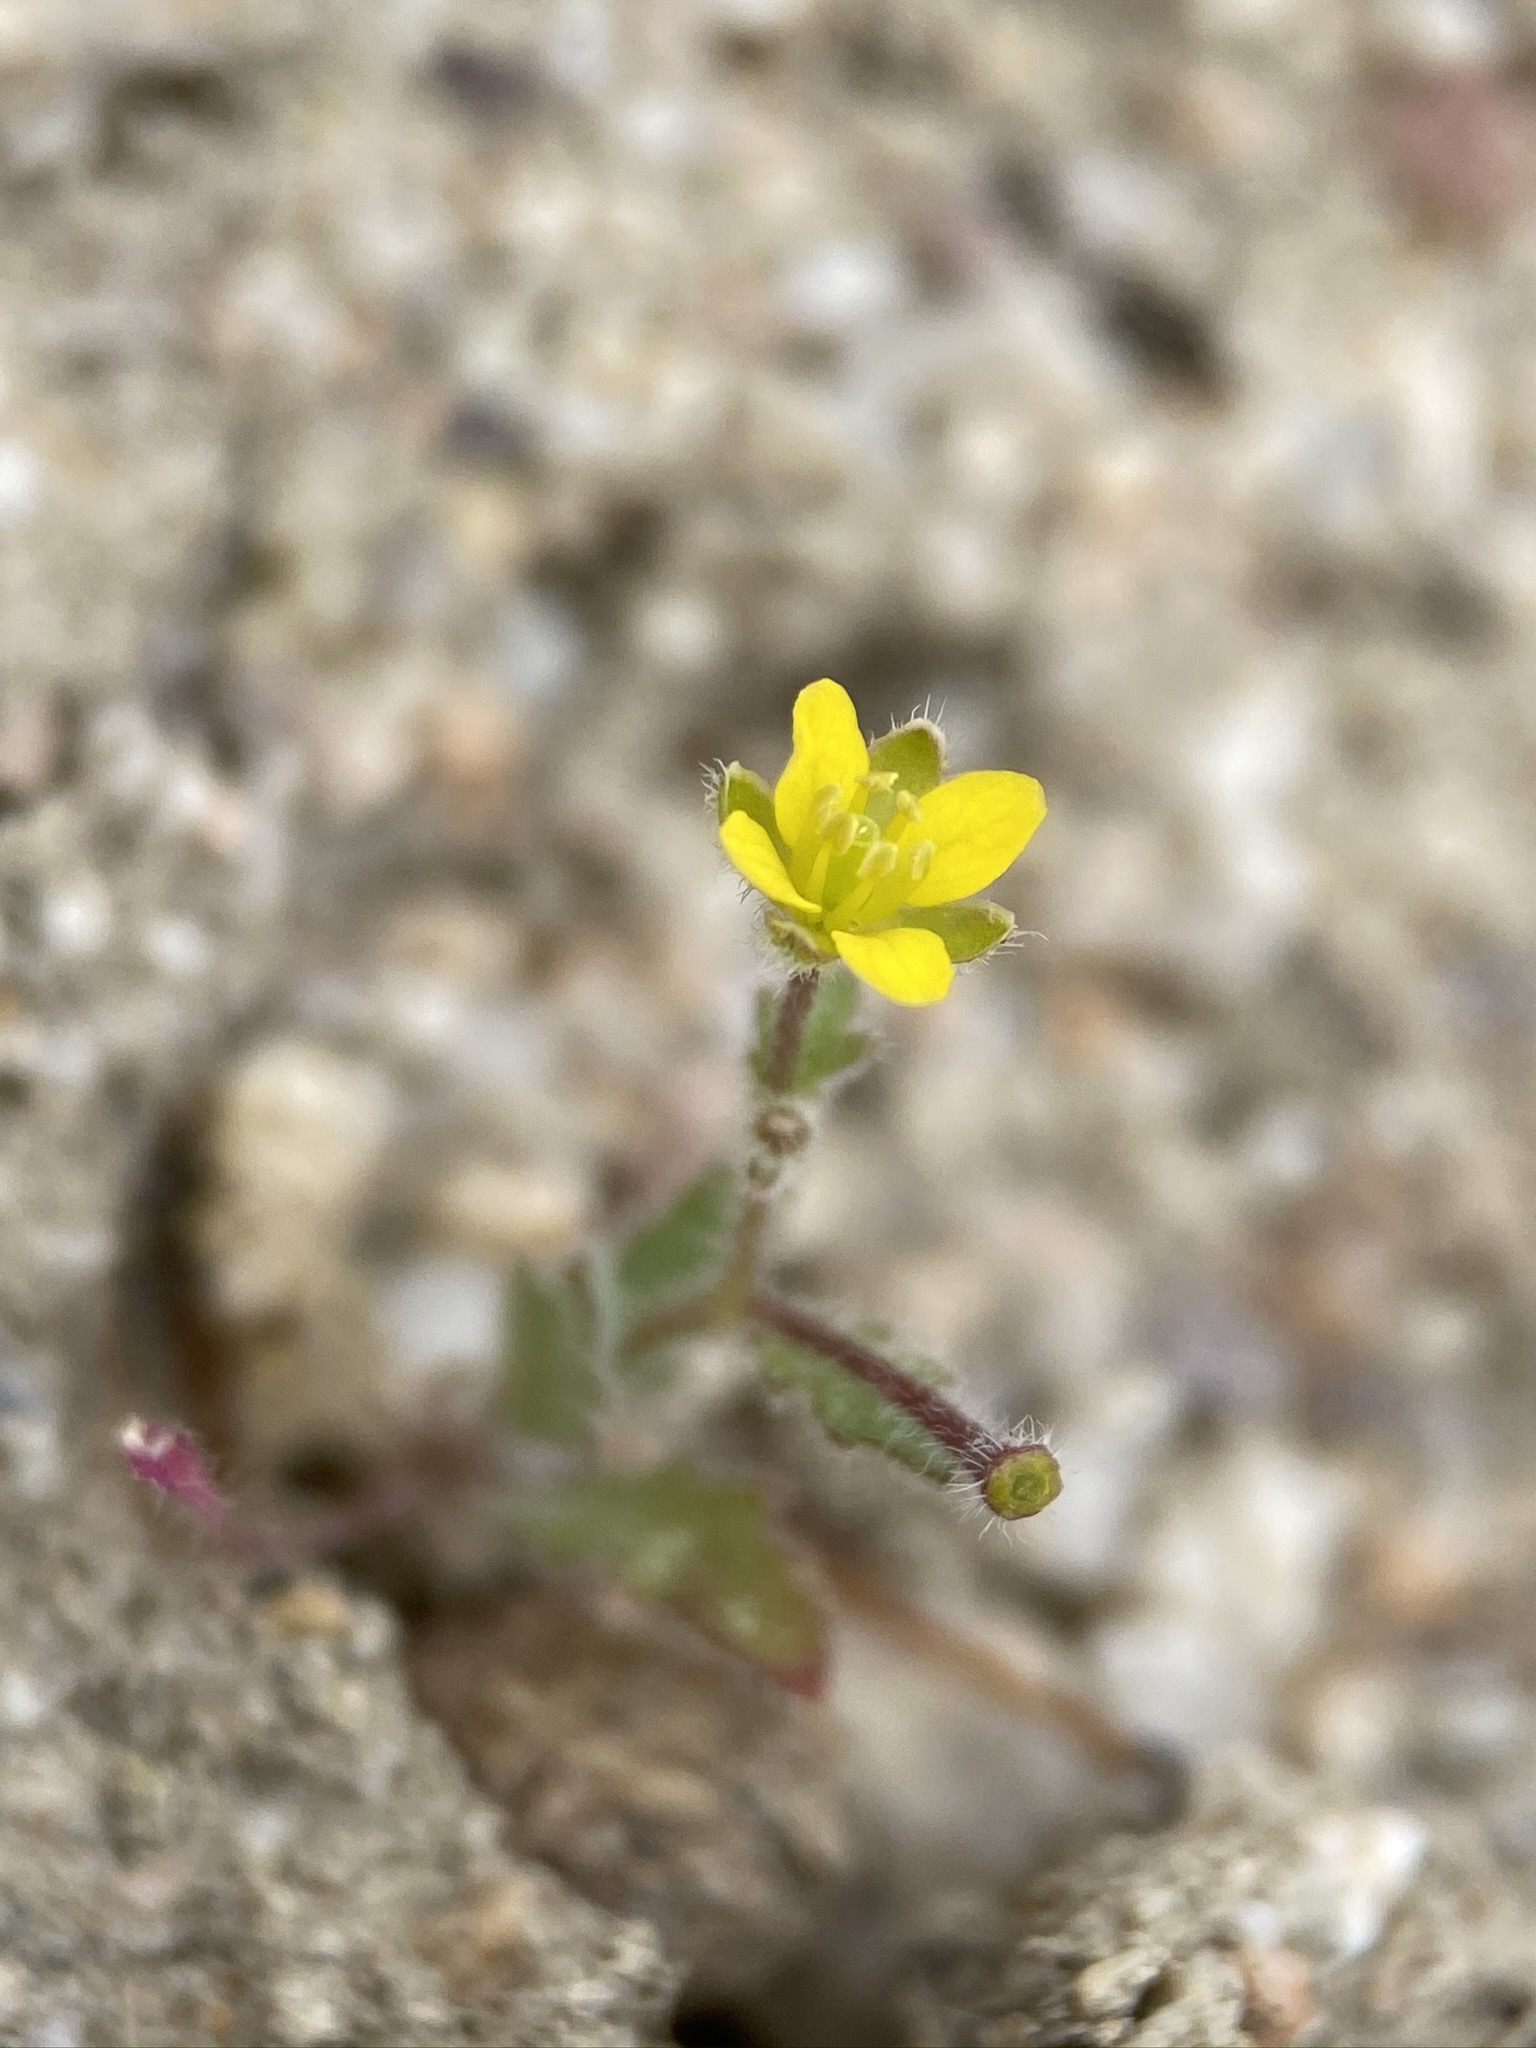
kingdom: Plantae
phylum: Tracheophyta
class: Magnoliopsida
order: Brassicales
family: Brassicaceae
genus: Tropidocarpum
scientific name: Tropidocarpum gracile
